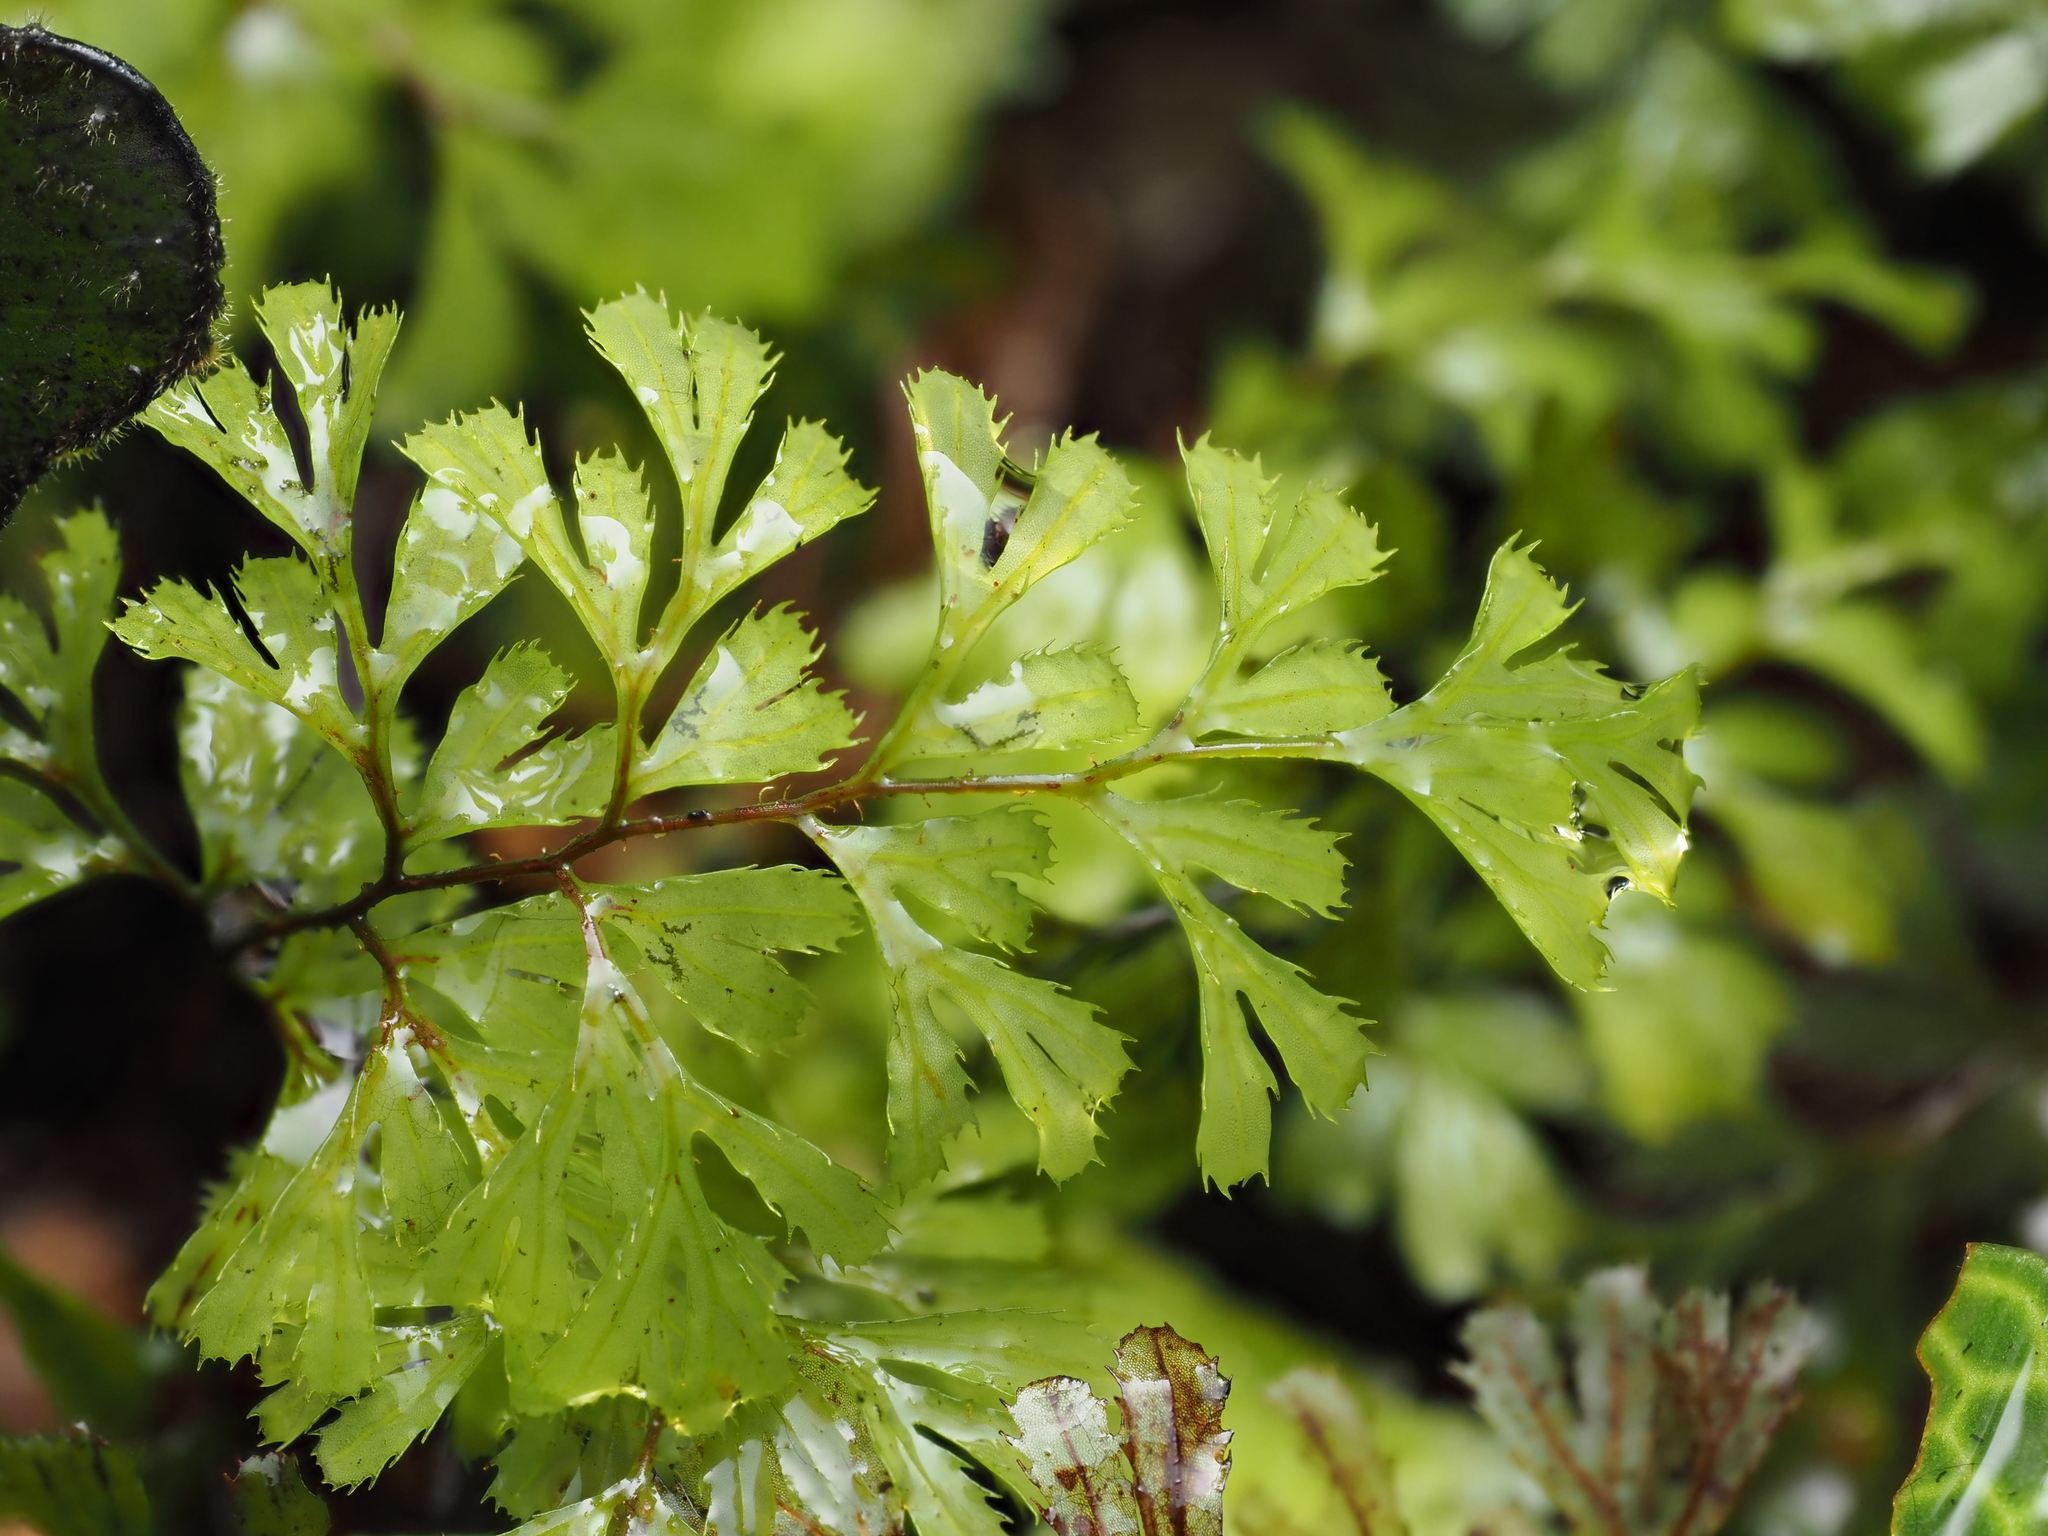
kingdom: Plantae
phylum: Tracheophyta
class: Polypodiopsida
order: Hymenophyllales
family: Hymenophyllaceae
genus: Hymenophyllum
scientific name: Hymenophyllum revolutum
